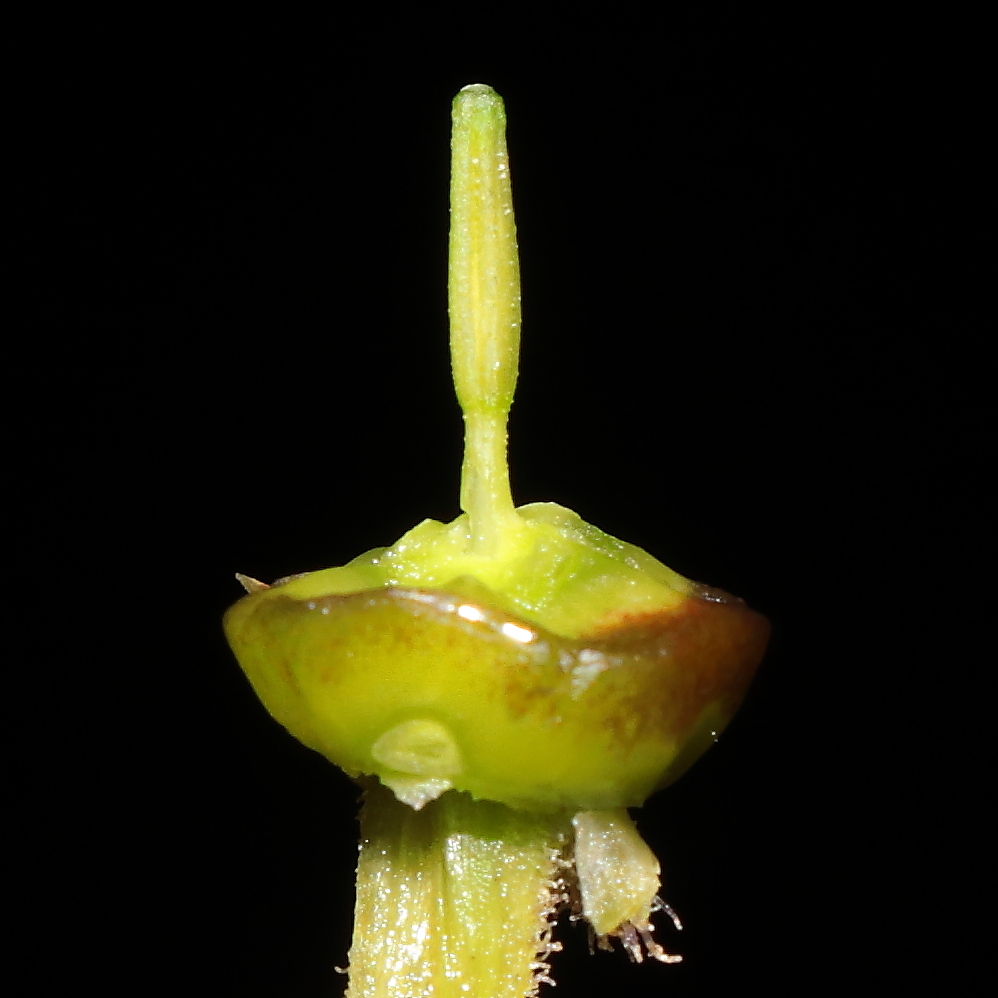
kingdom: Plantae
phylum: Tracheophyta
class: Magnoliopsida
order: Brassicales
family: Cleomaceae
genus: Andinocleome
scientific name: Andinocleome lechleri
